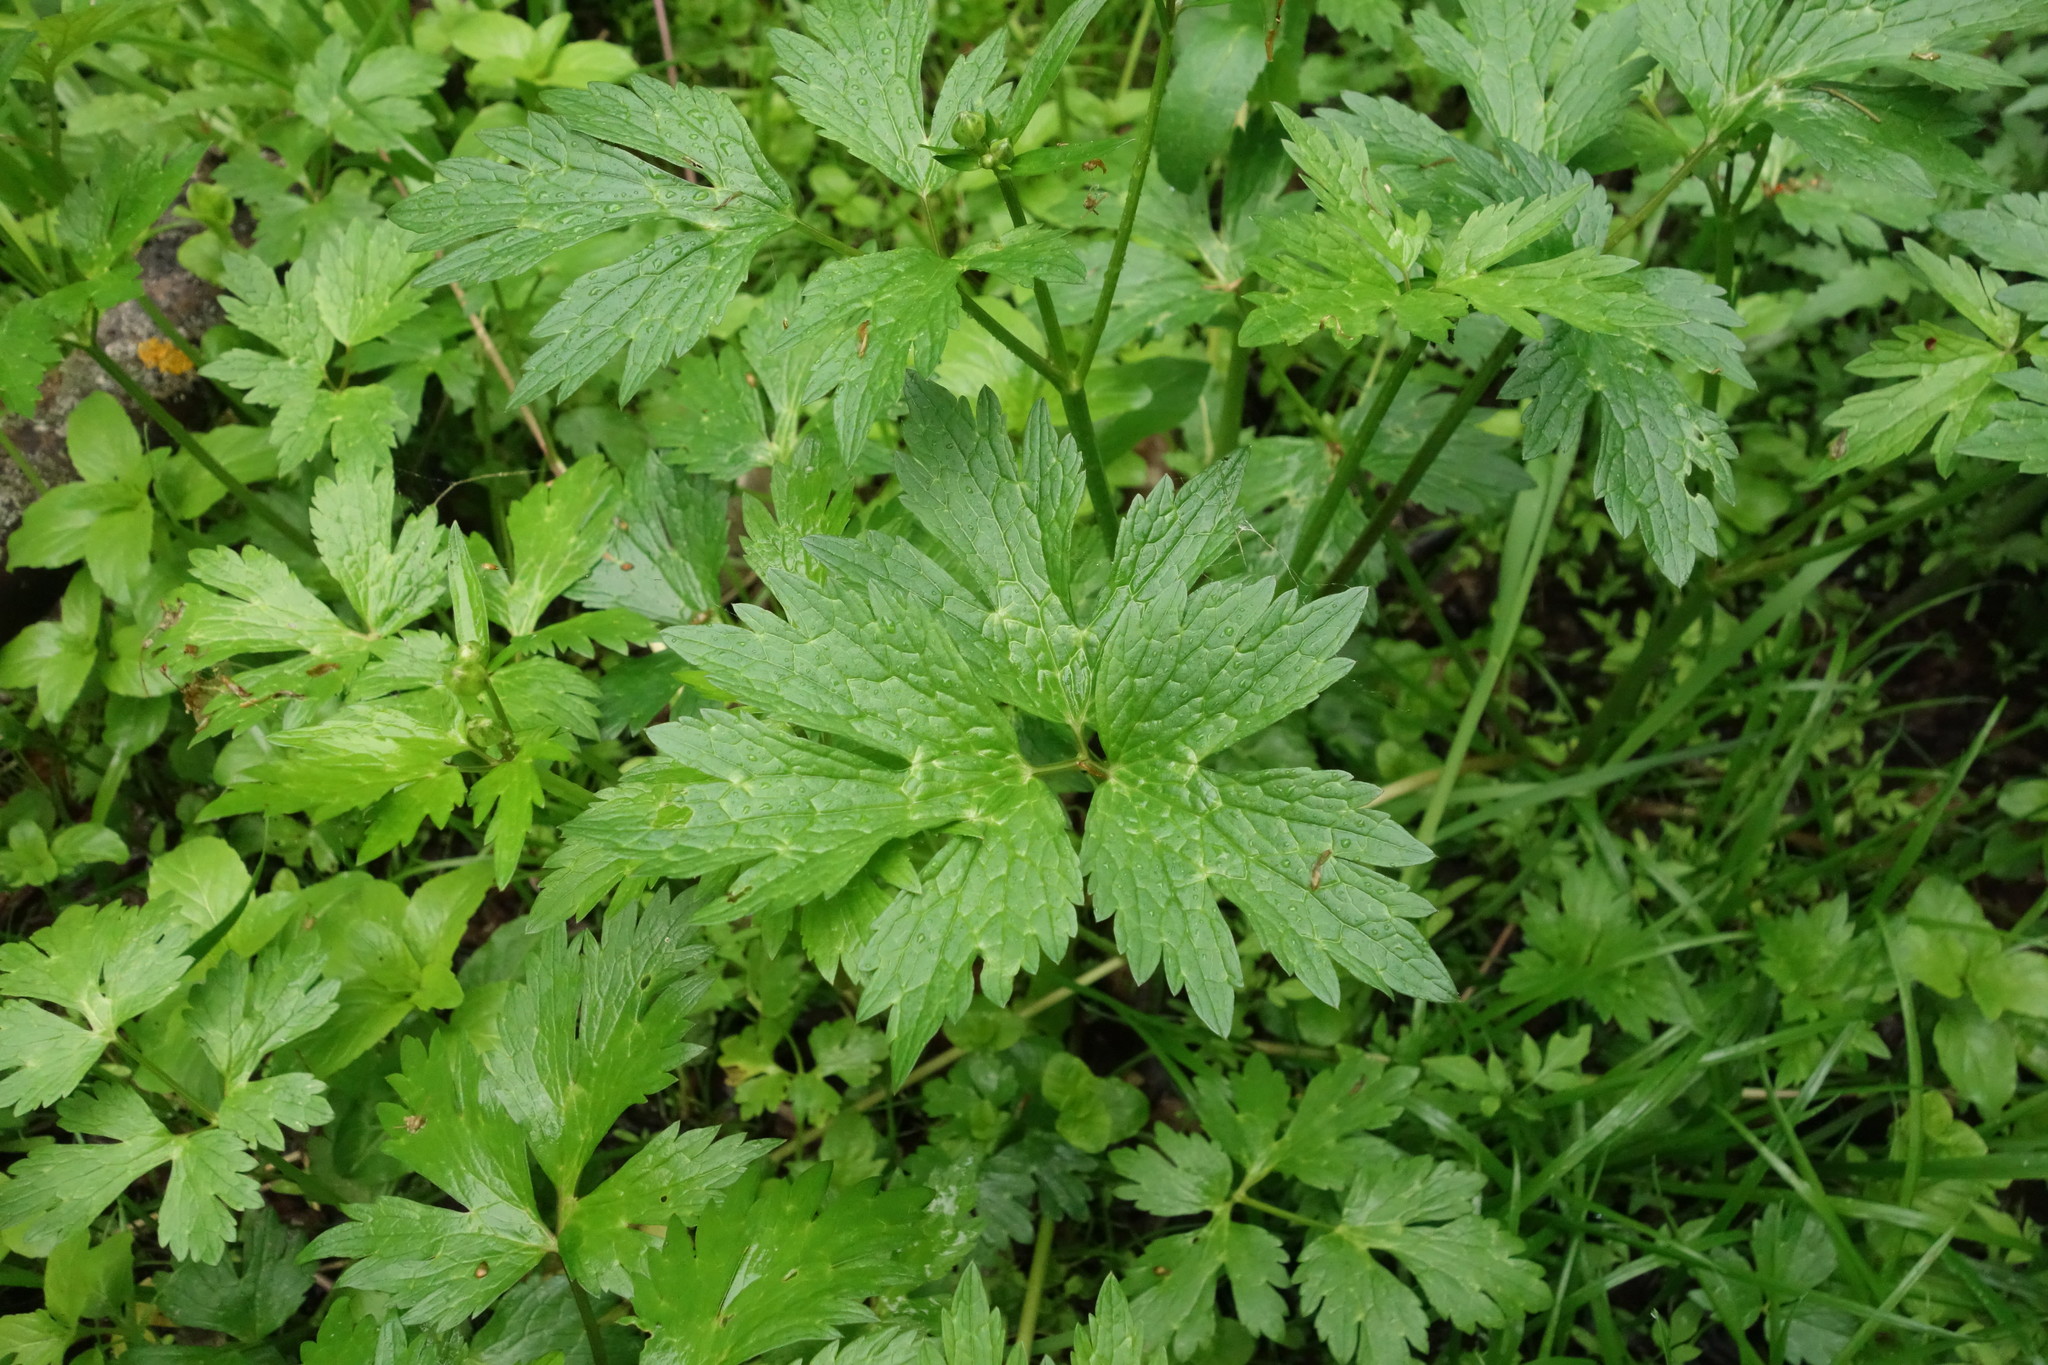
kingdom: Plantae
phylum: Tracheophyta
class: Magnoliopsida
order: Ranunculales
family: Ranunculaceae
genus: Ranunculus
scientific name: Ranunculus repens
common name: Creeping buttercup
